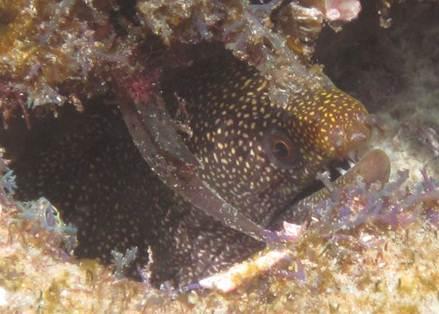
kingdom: Animalia
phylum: Chordata
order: Anguilliformes
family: Muraenidae
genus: Gymnothorax
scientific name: Gymnothorax meleagris
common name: Guineafowl moray
